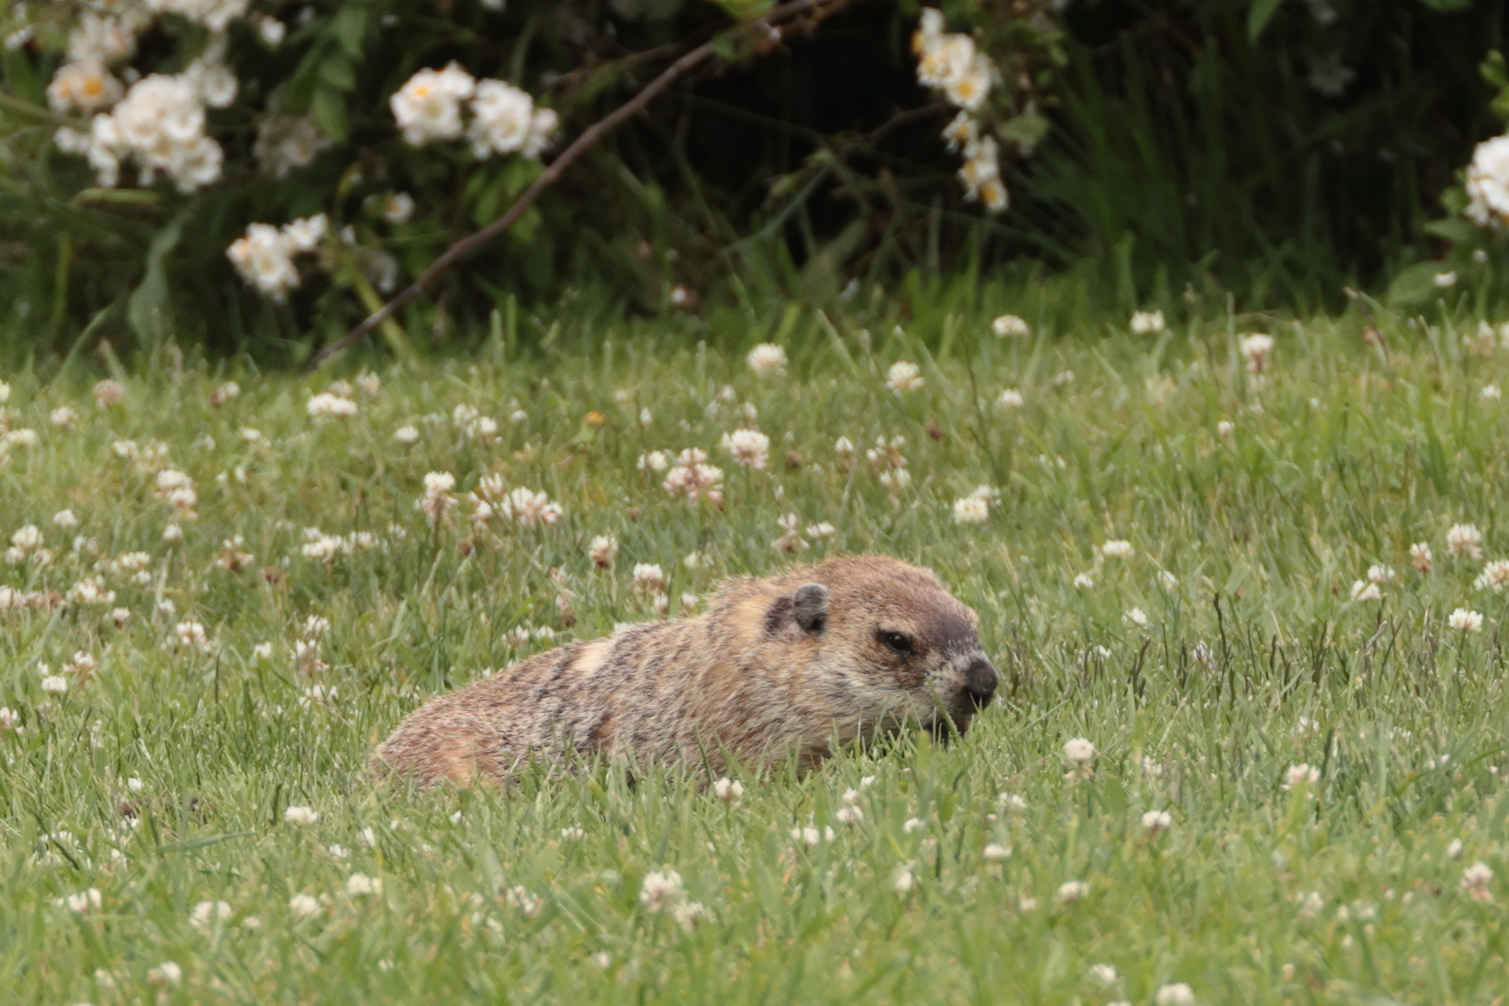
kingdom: Animalia
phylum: Chordata
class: Mammalia
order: Rodentia
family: Sciuridae
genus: Marmota
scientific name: Marmota monax
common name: Groundhog
